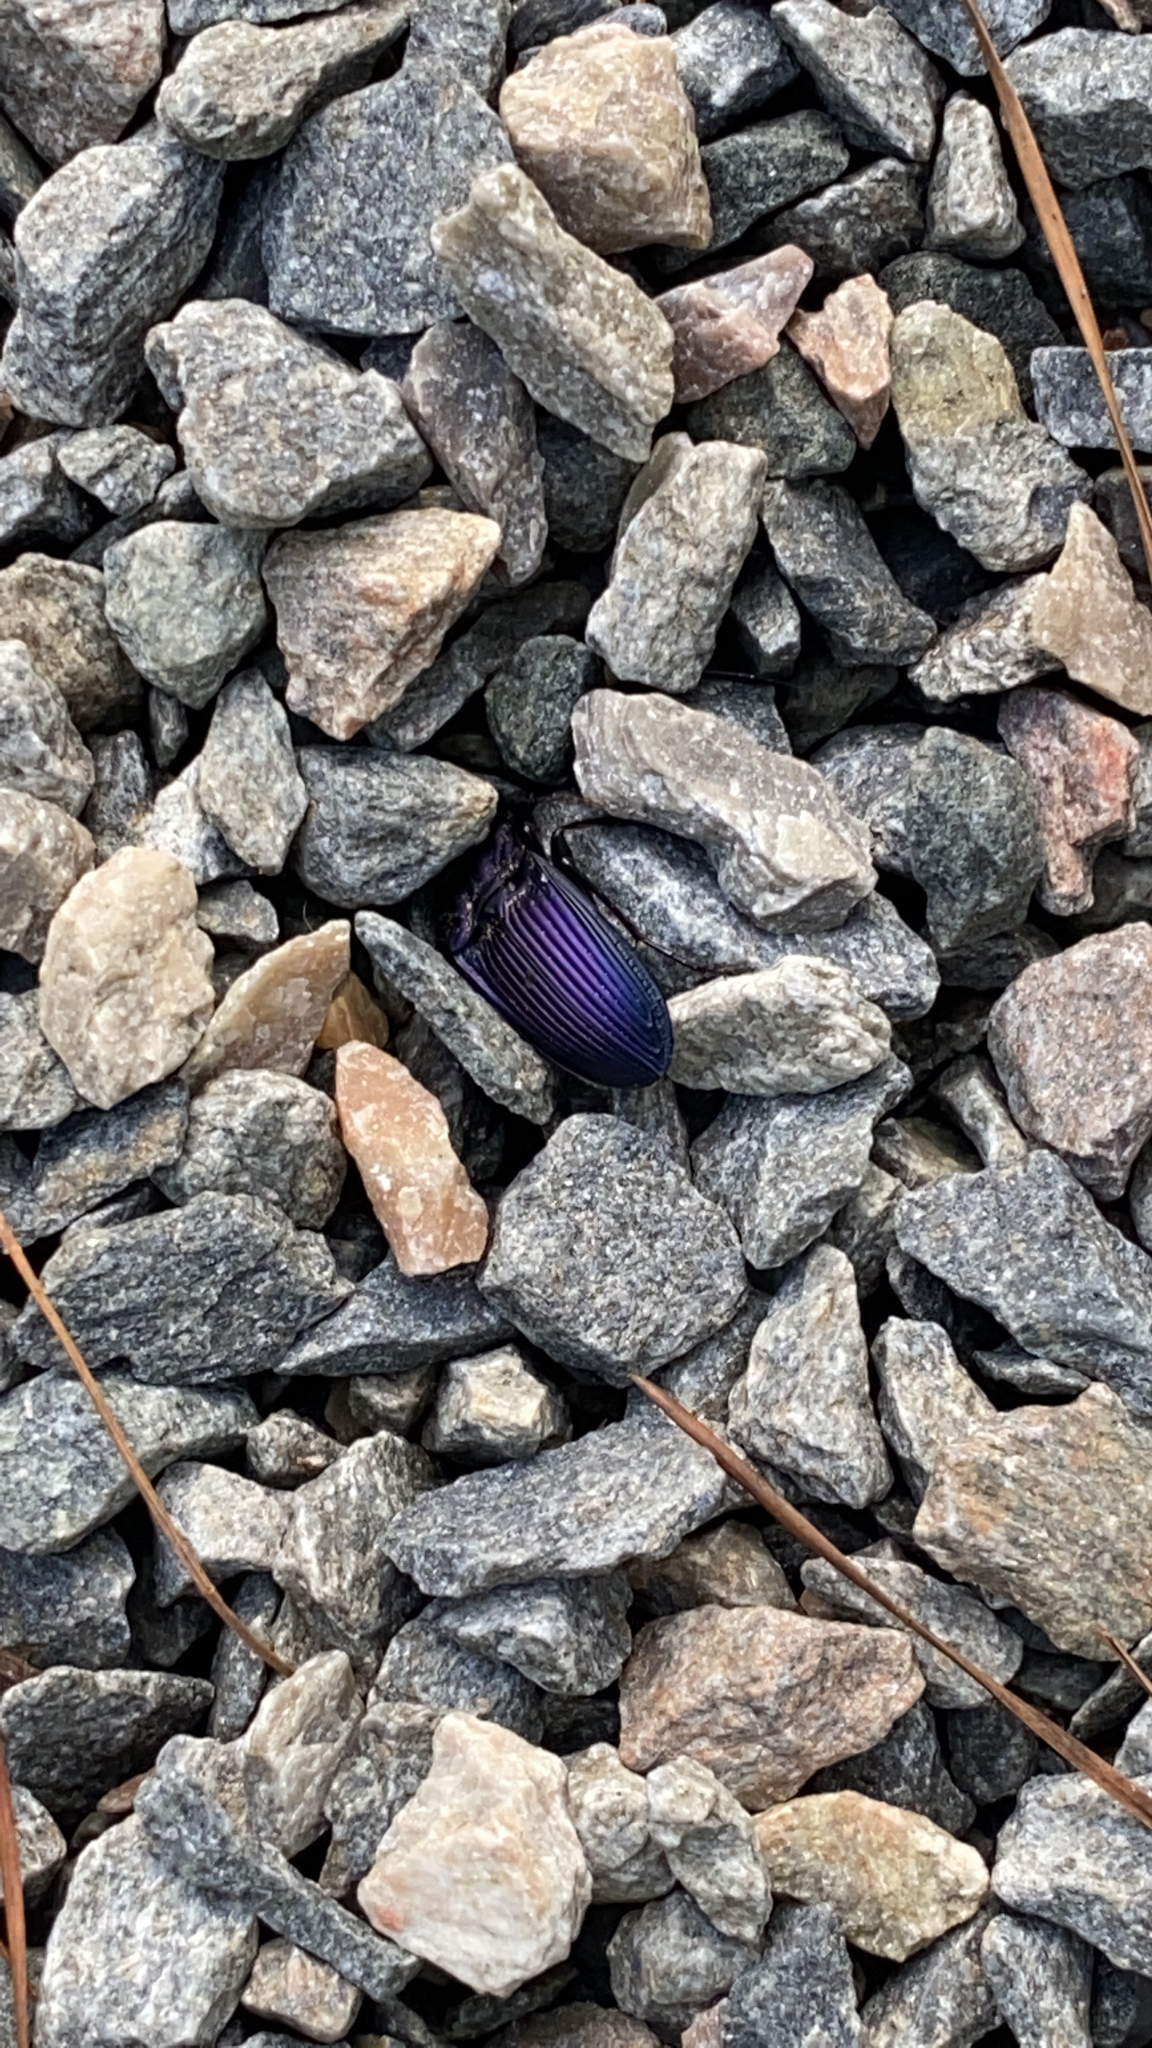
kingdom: Animalia
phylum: Arthropoda
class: Insecta
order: Coleoptera
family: Carabidae
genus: Dicaelus
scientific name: Dicaelus purpuratus
